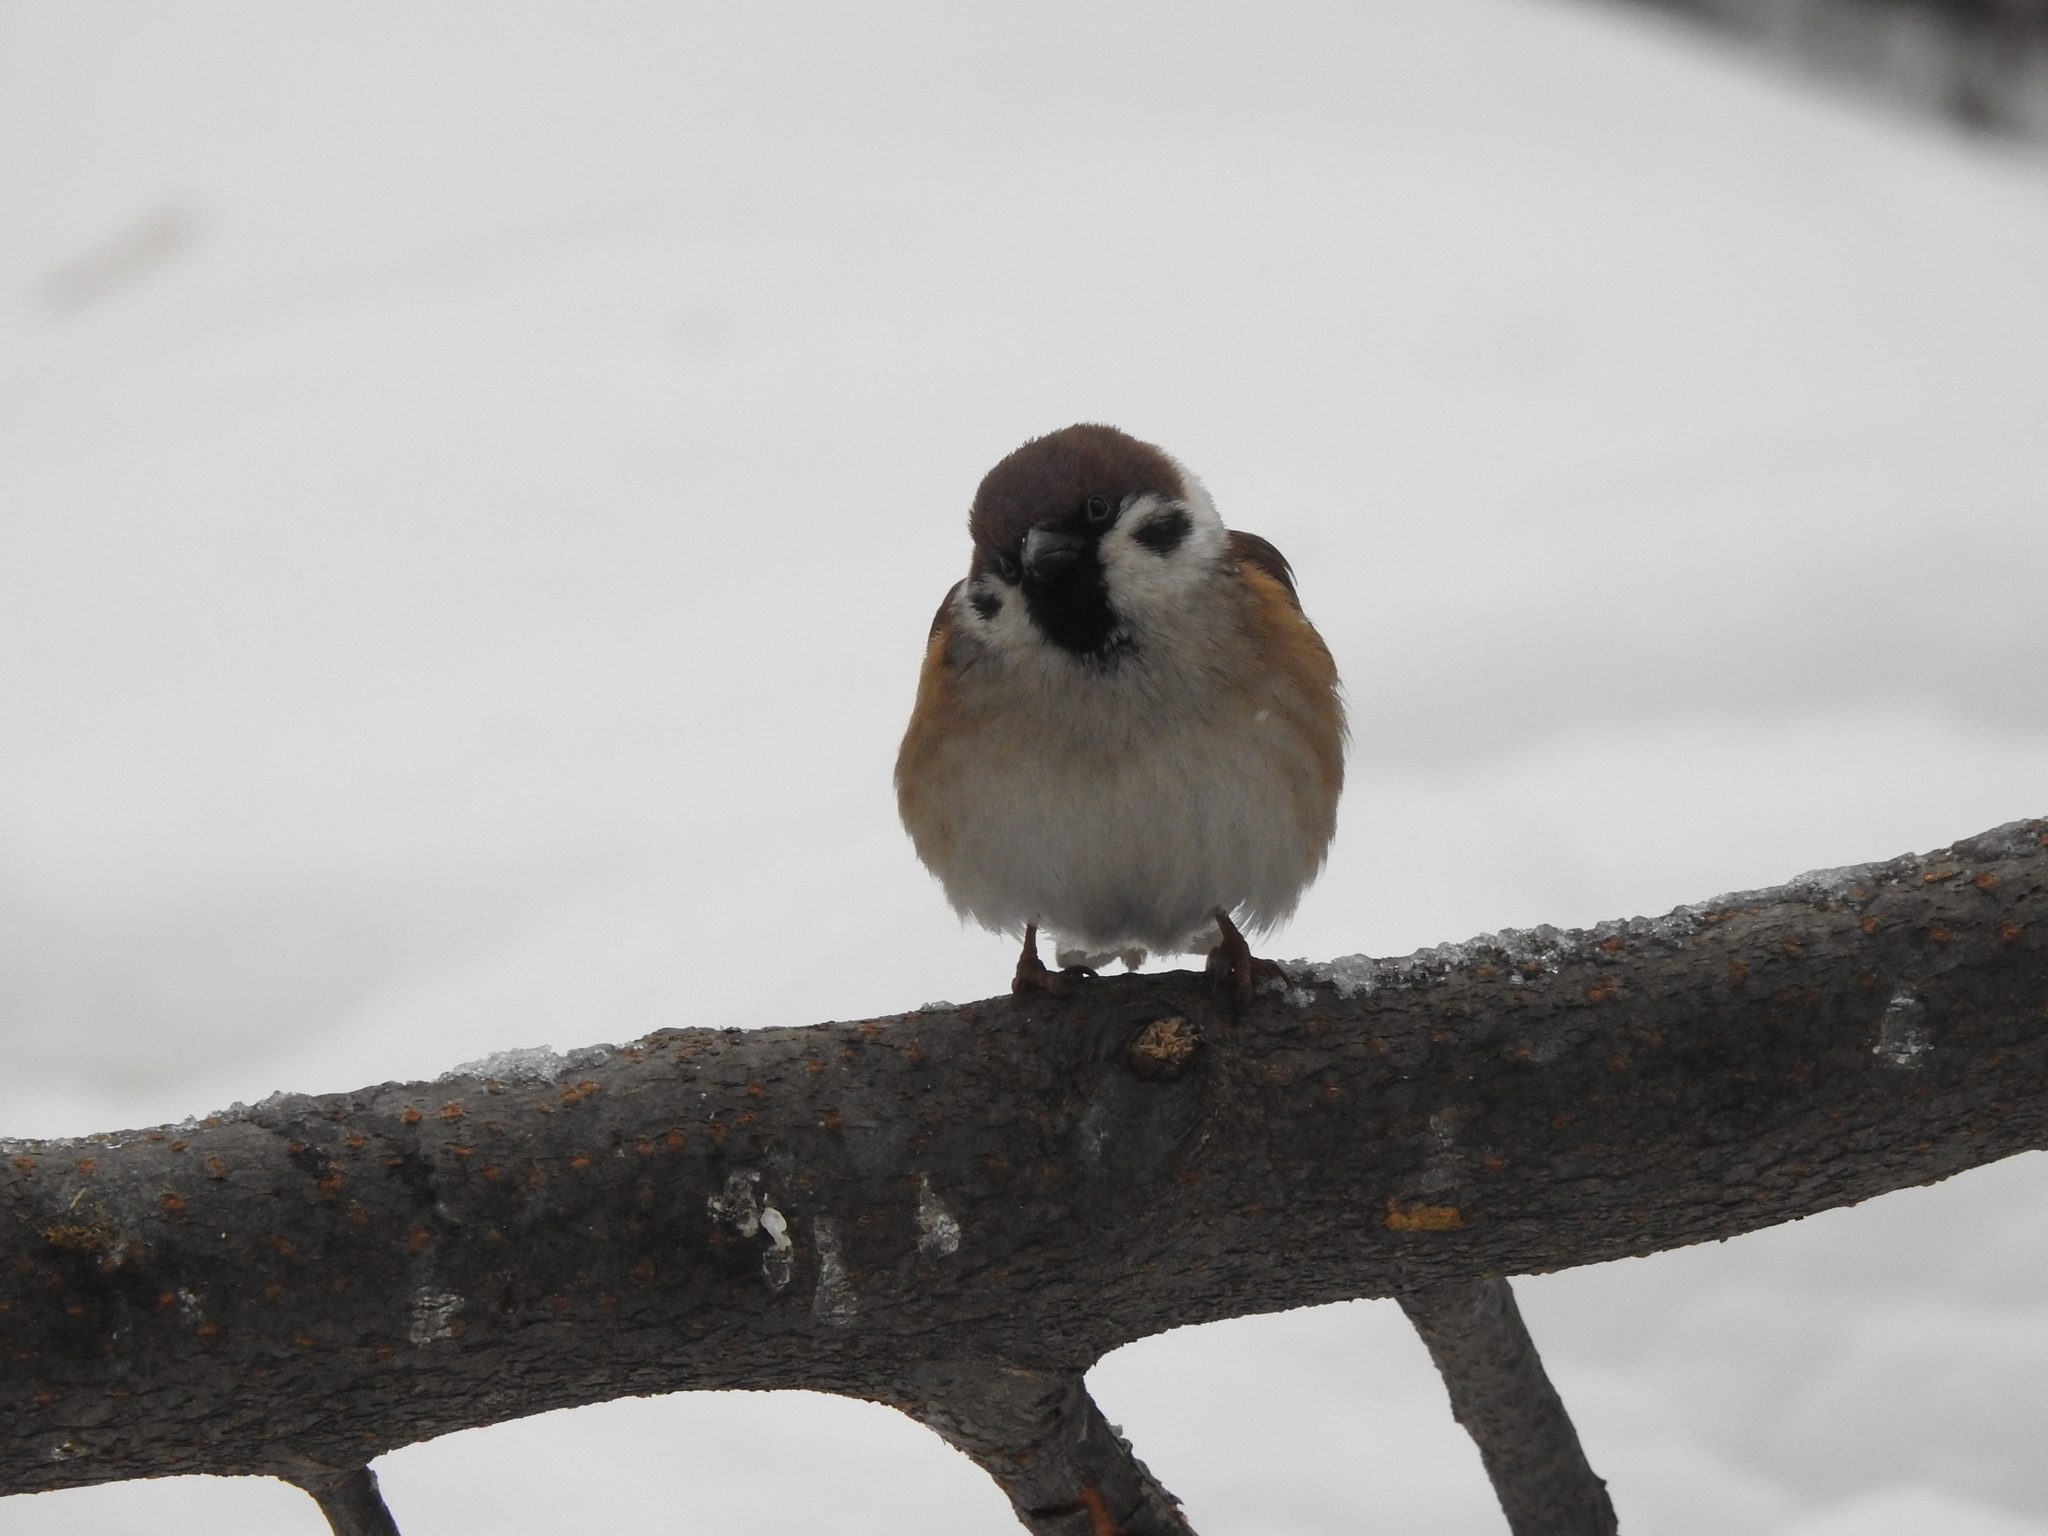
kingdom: Animalia
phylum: Chordata
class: Aves
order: Passeriformes
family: Passeridae
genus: Passer
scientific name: Passer montanus
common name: Eurasian tree sparrow
